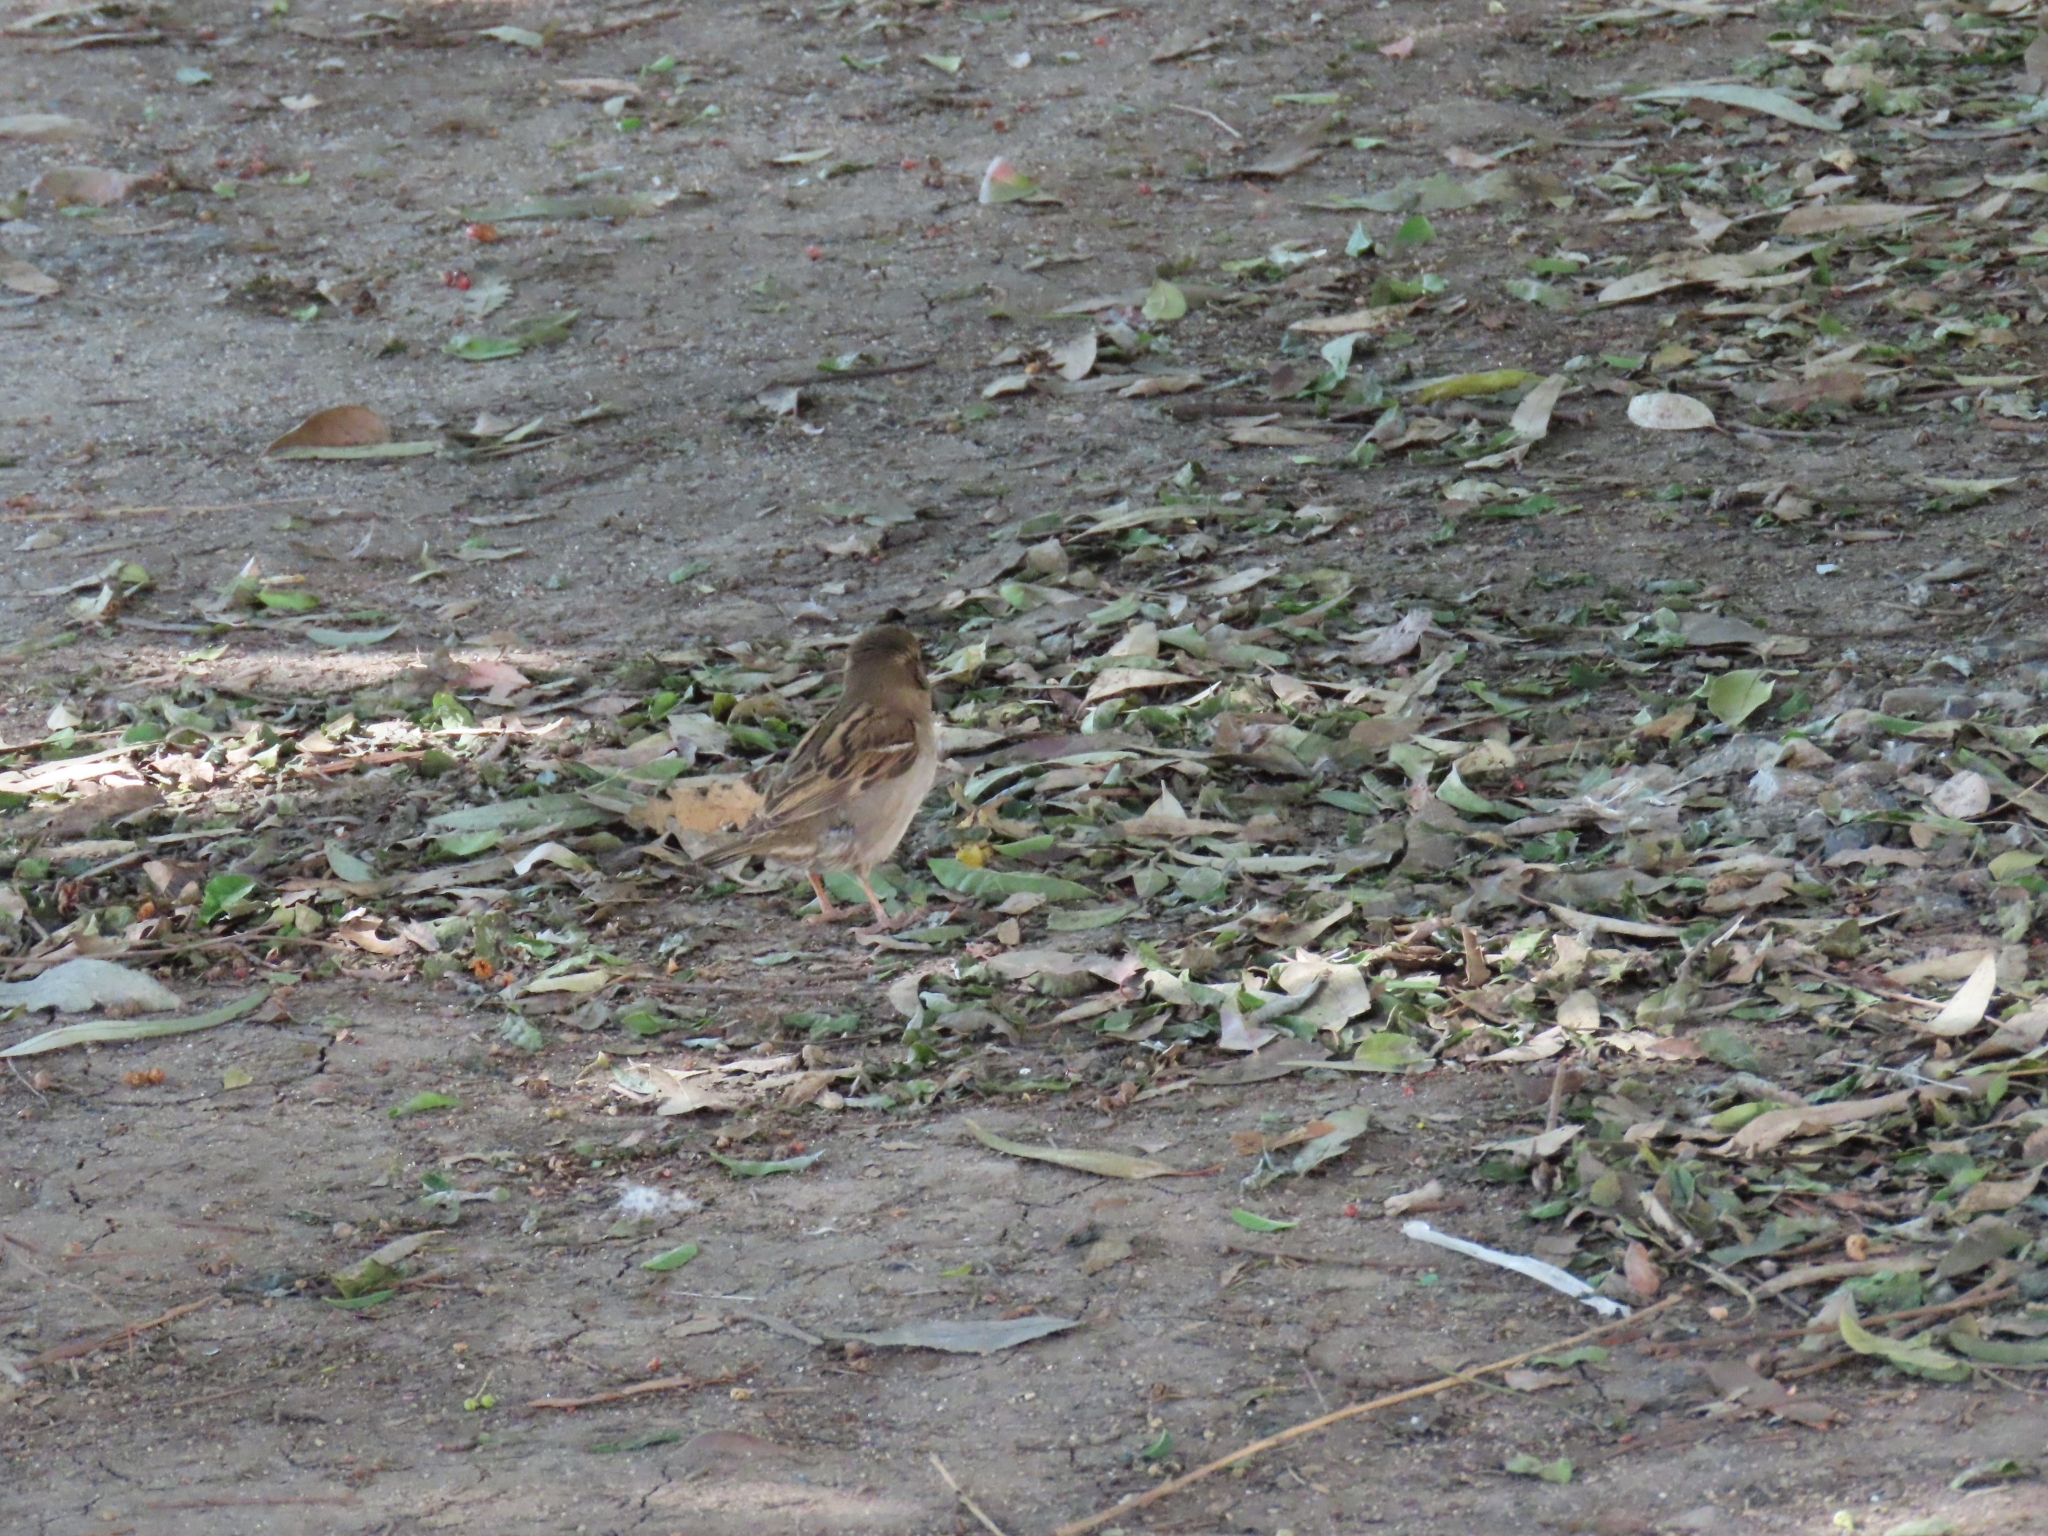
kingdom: Animalia
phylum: Chordata
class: Aves
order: Passeriformes
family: Passeridae
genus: Passer
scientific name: Passer domesticus
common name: House sparrow
